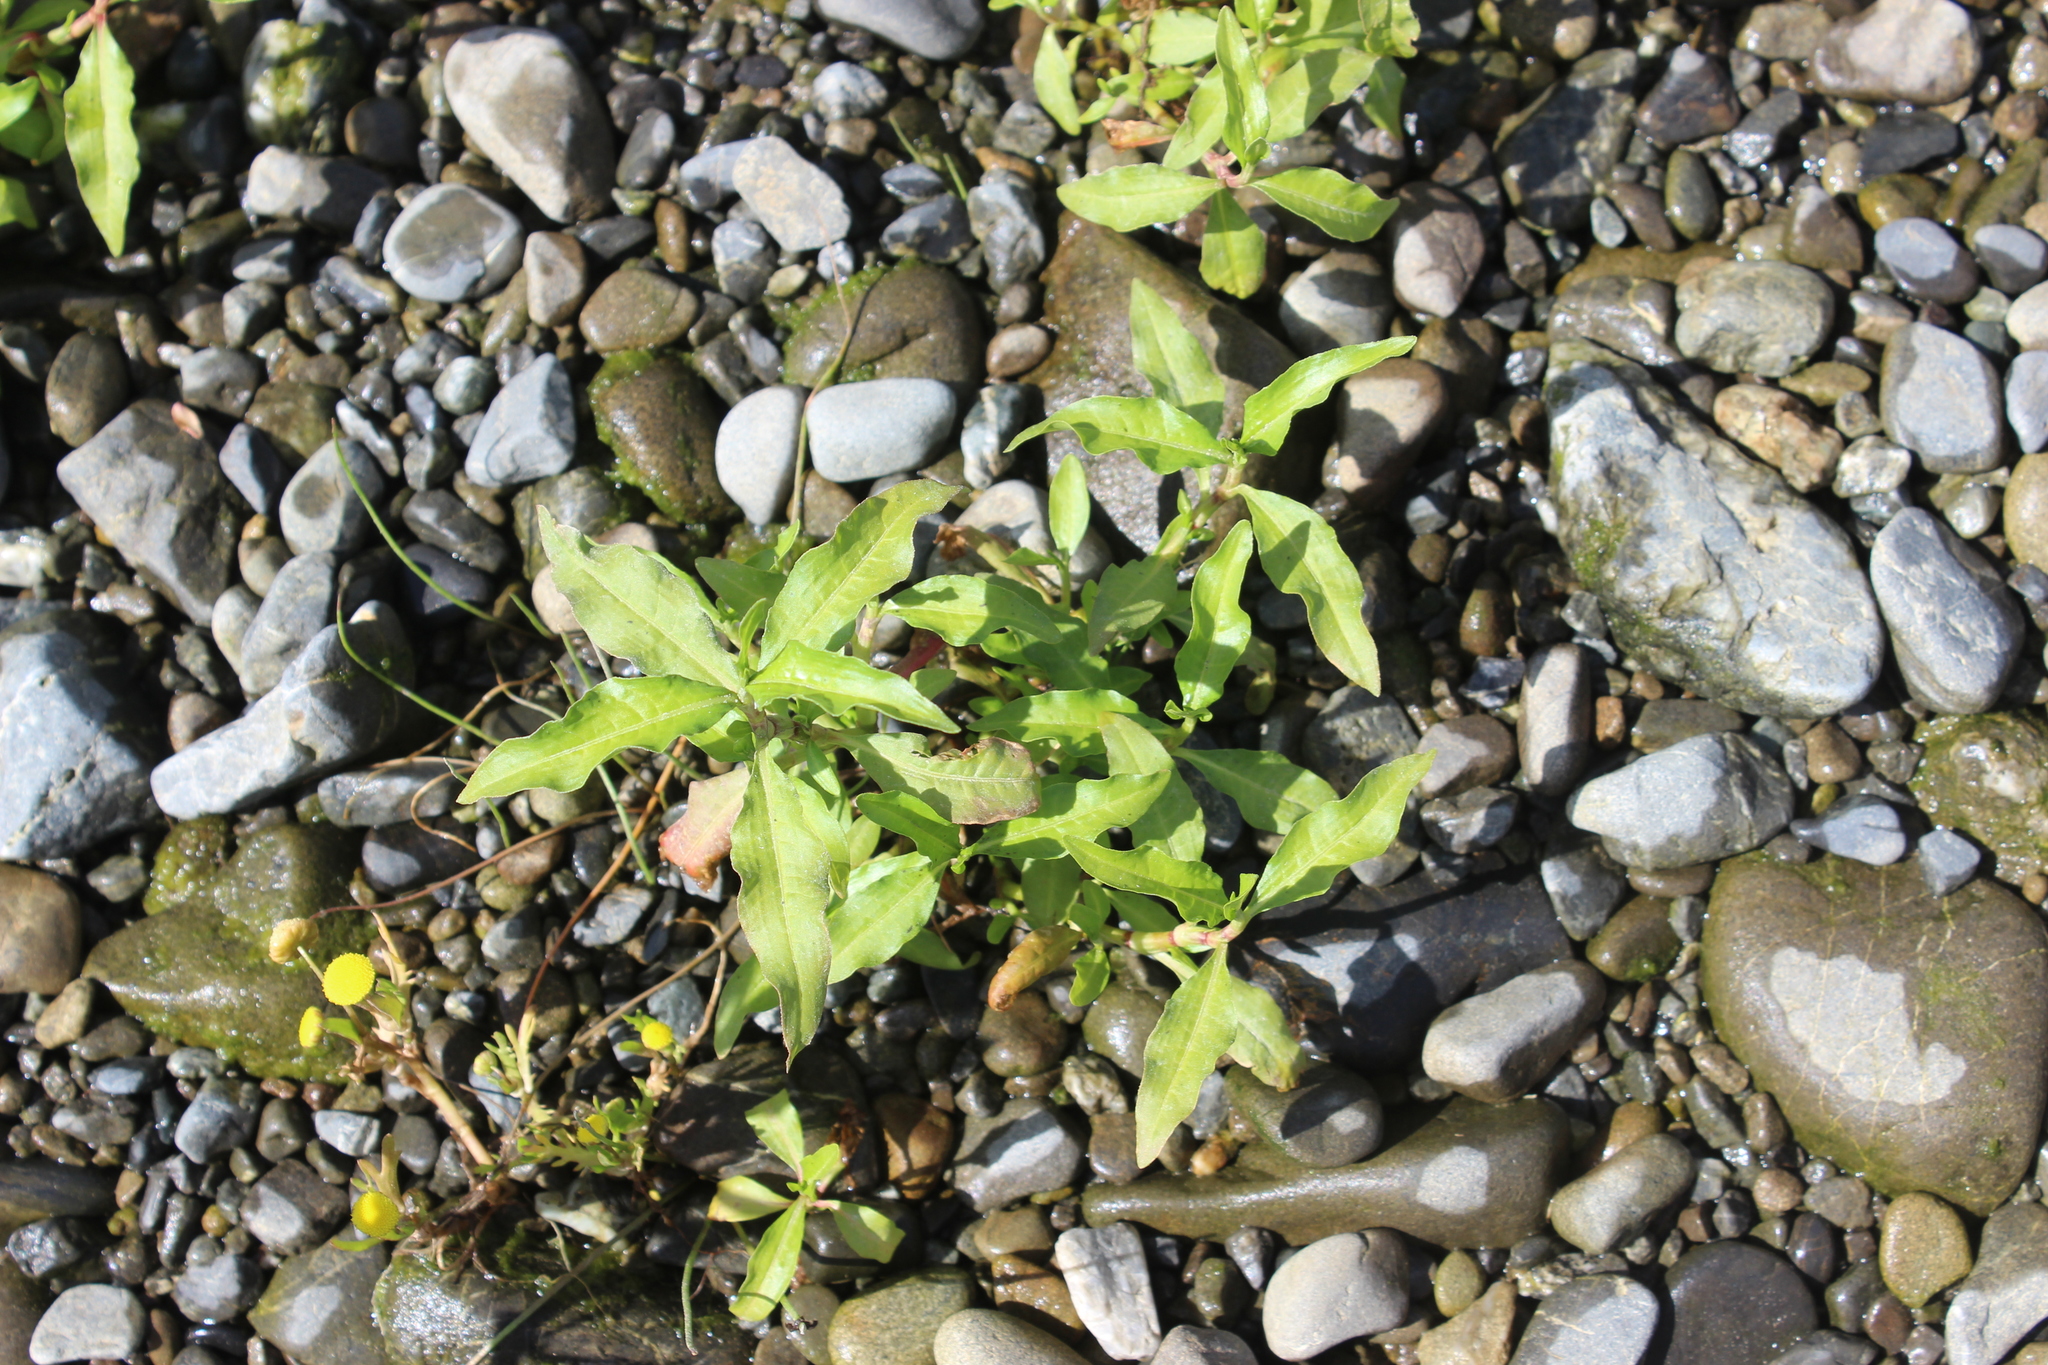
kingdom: Plantae
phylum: Tracheophyta
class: Magnoliopsida
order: Caryophyllales
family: Polygonaceae
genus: Persicaria
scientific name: Persicaria hydropiper
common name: Water-pepper
